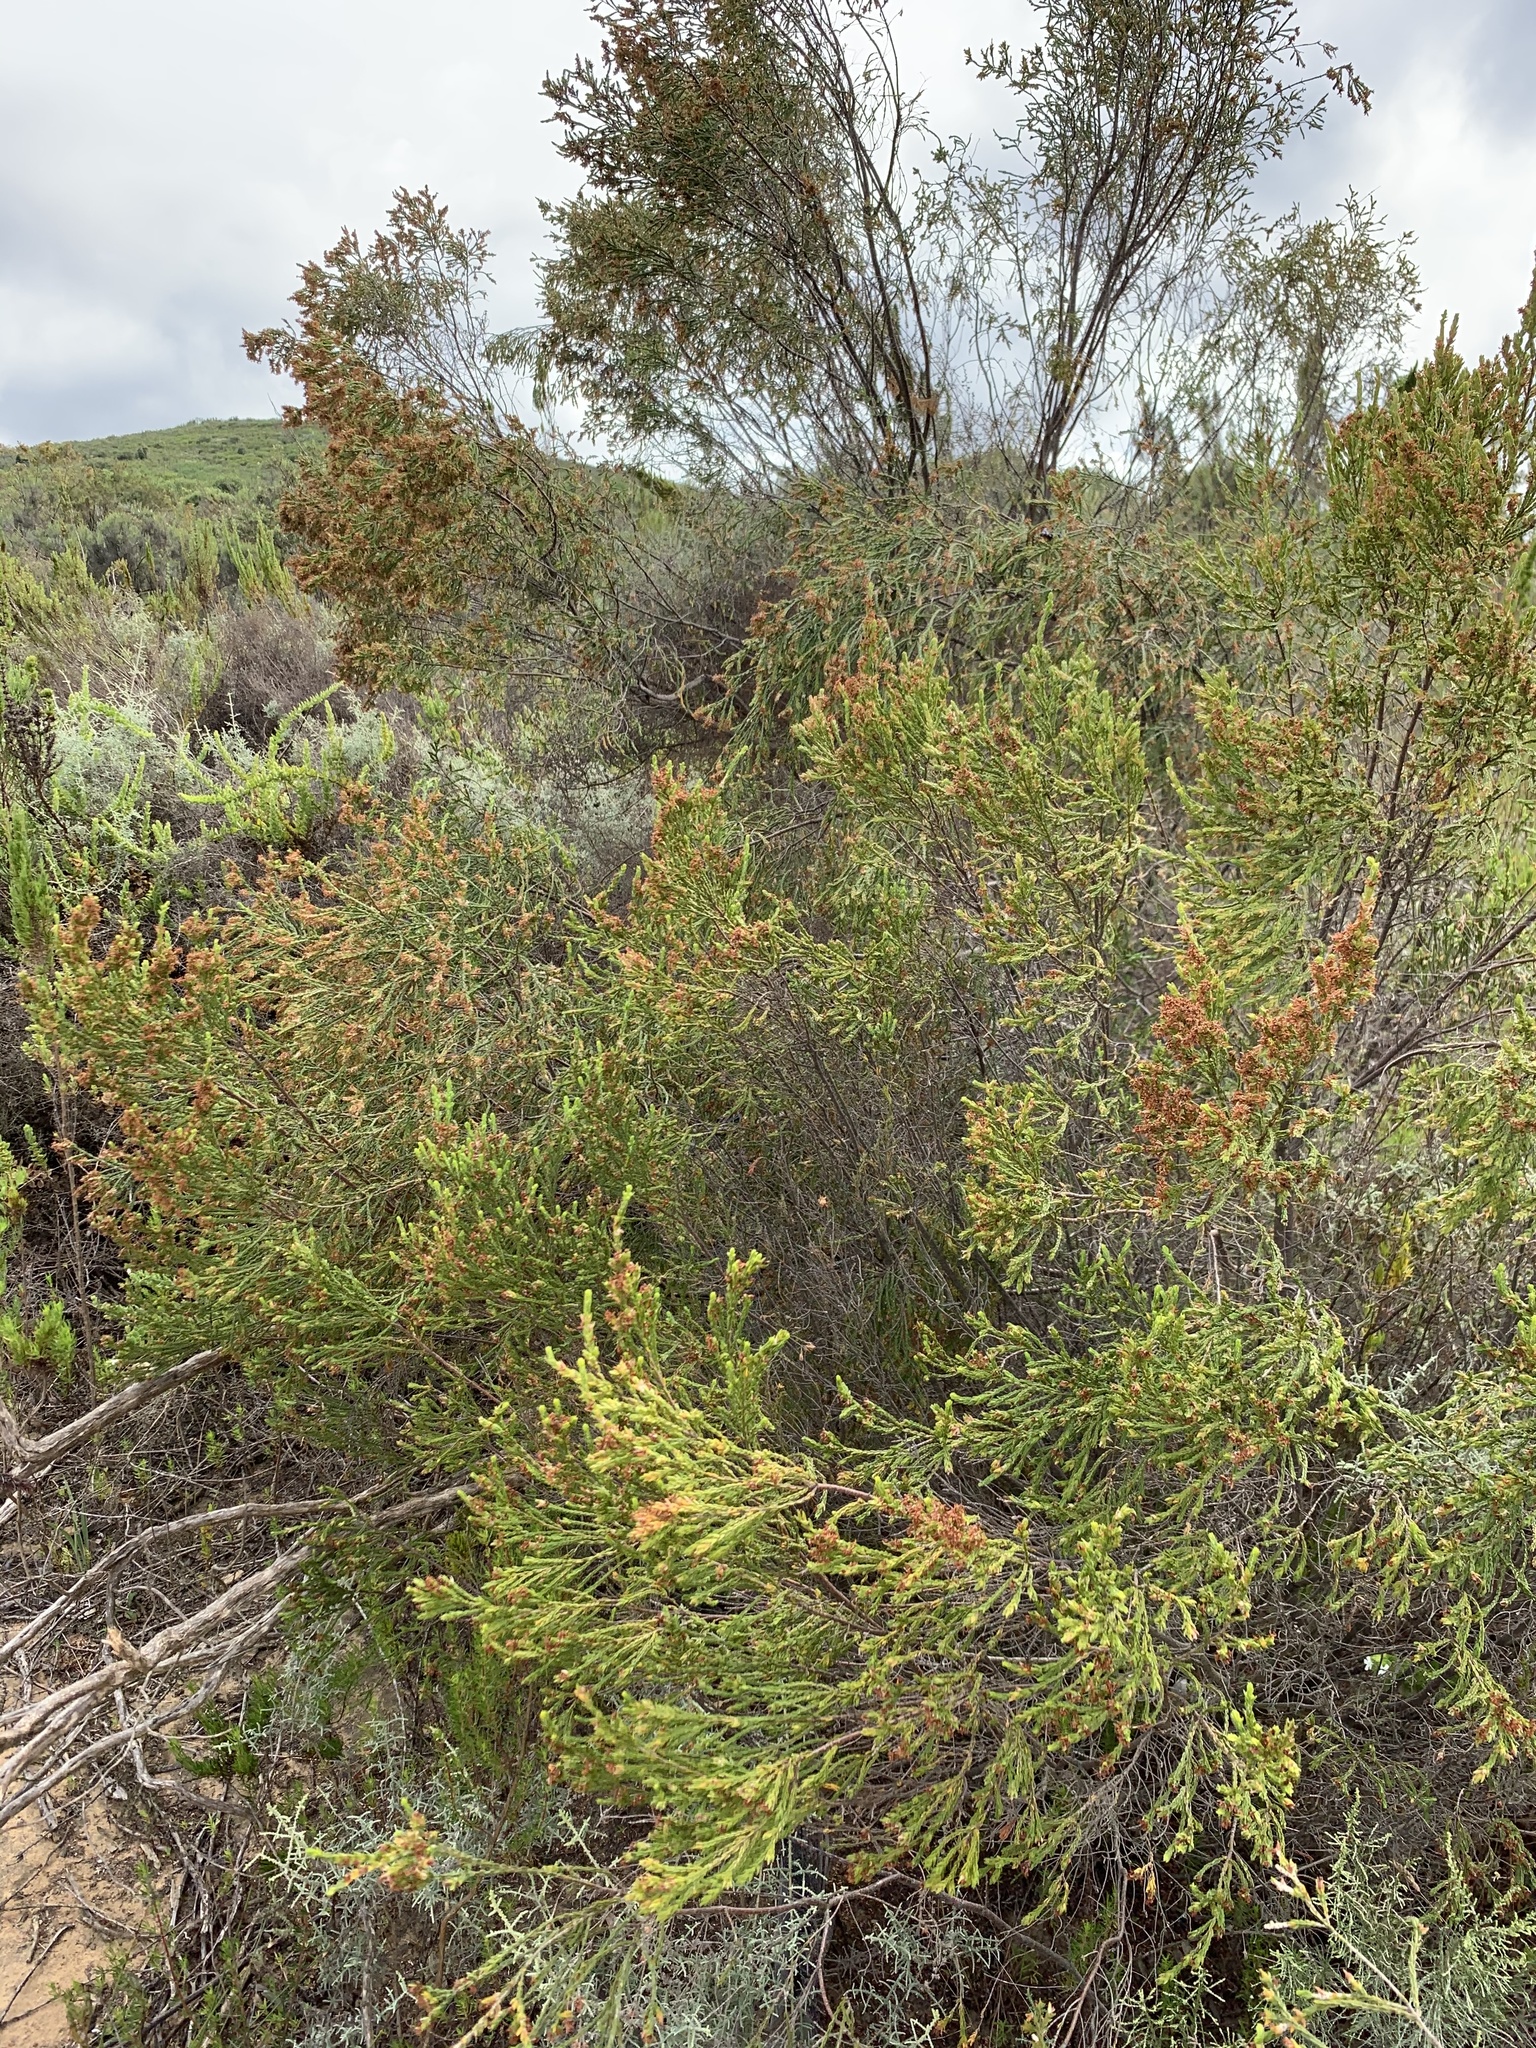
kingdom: Plantae
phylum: Tracheophyta
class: Magnoliopsida
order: Malvales
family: Thymelaeaceae
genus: Passerina
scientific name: Passerina corymbosa
